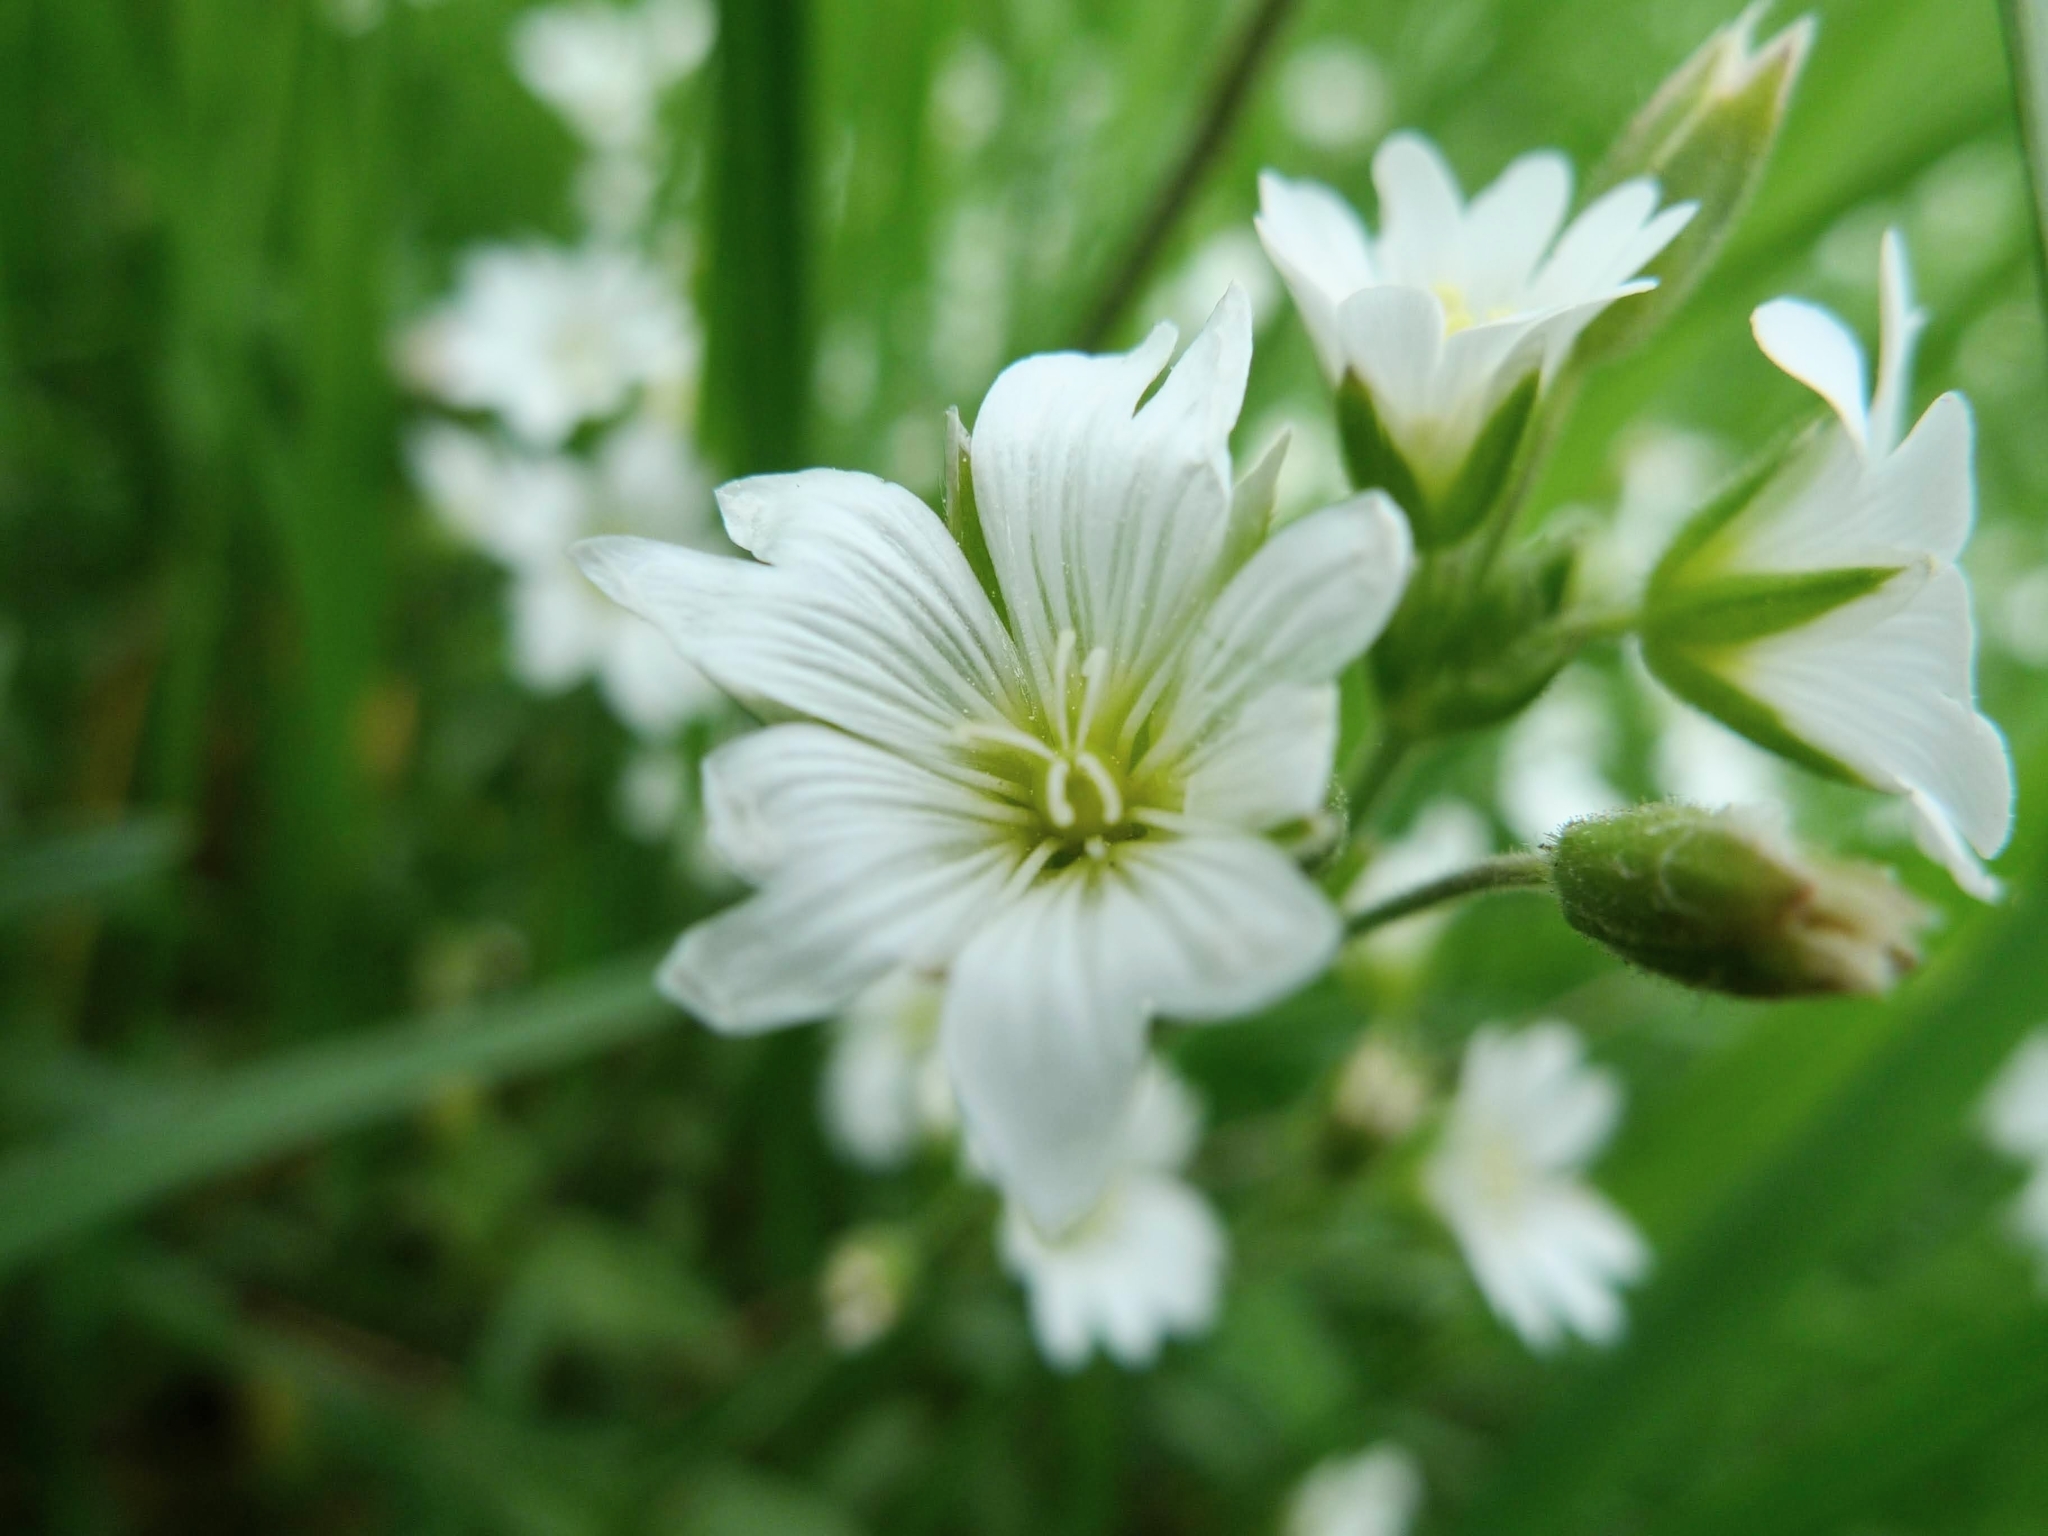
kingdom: Plantae
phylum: Tracheophyta
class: Magnoliopsida
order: Caryophyllales
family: Caryophyllaceae
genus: Rabelera
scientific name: Rabelera holostea
